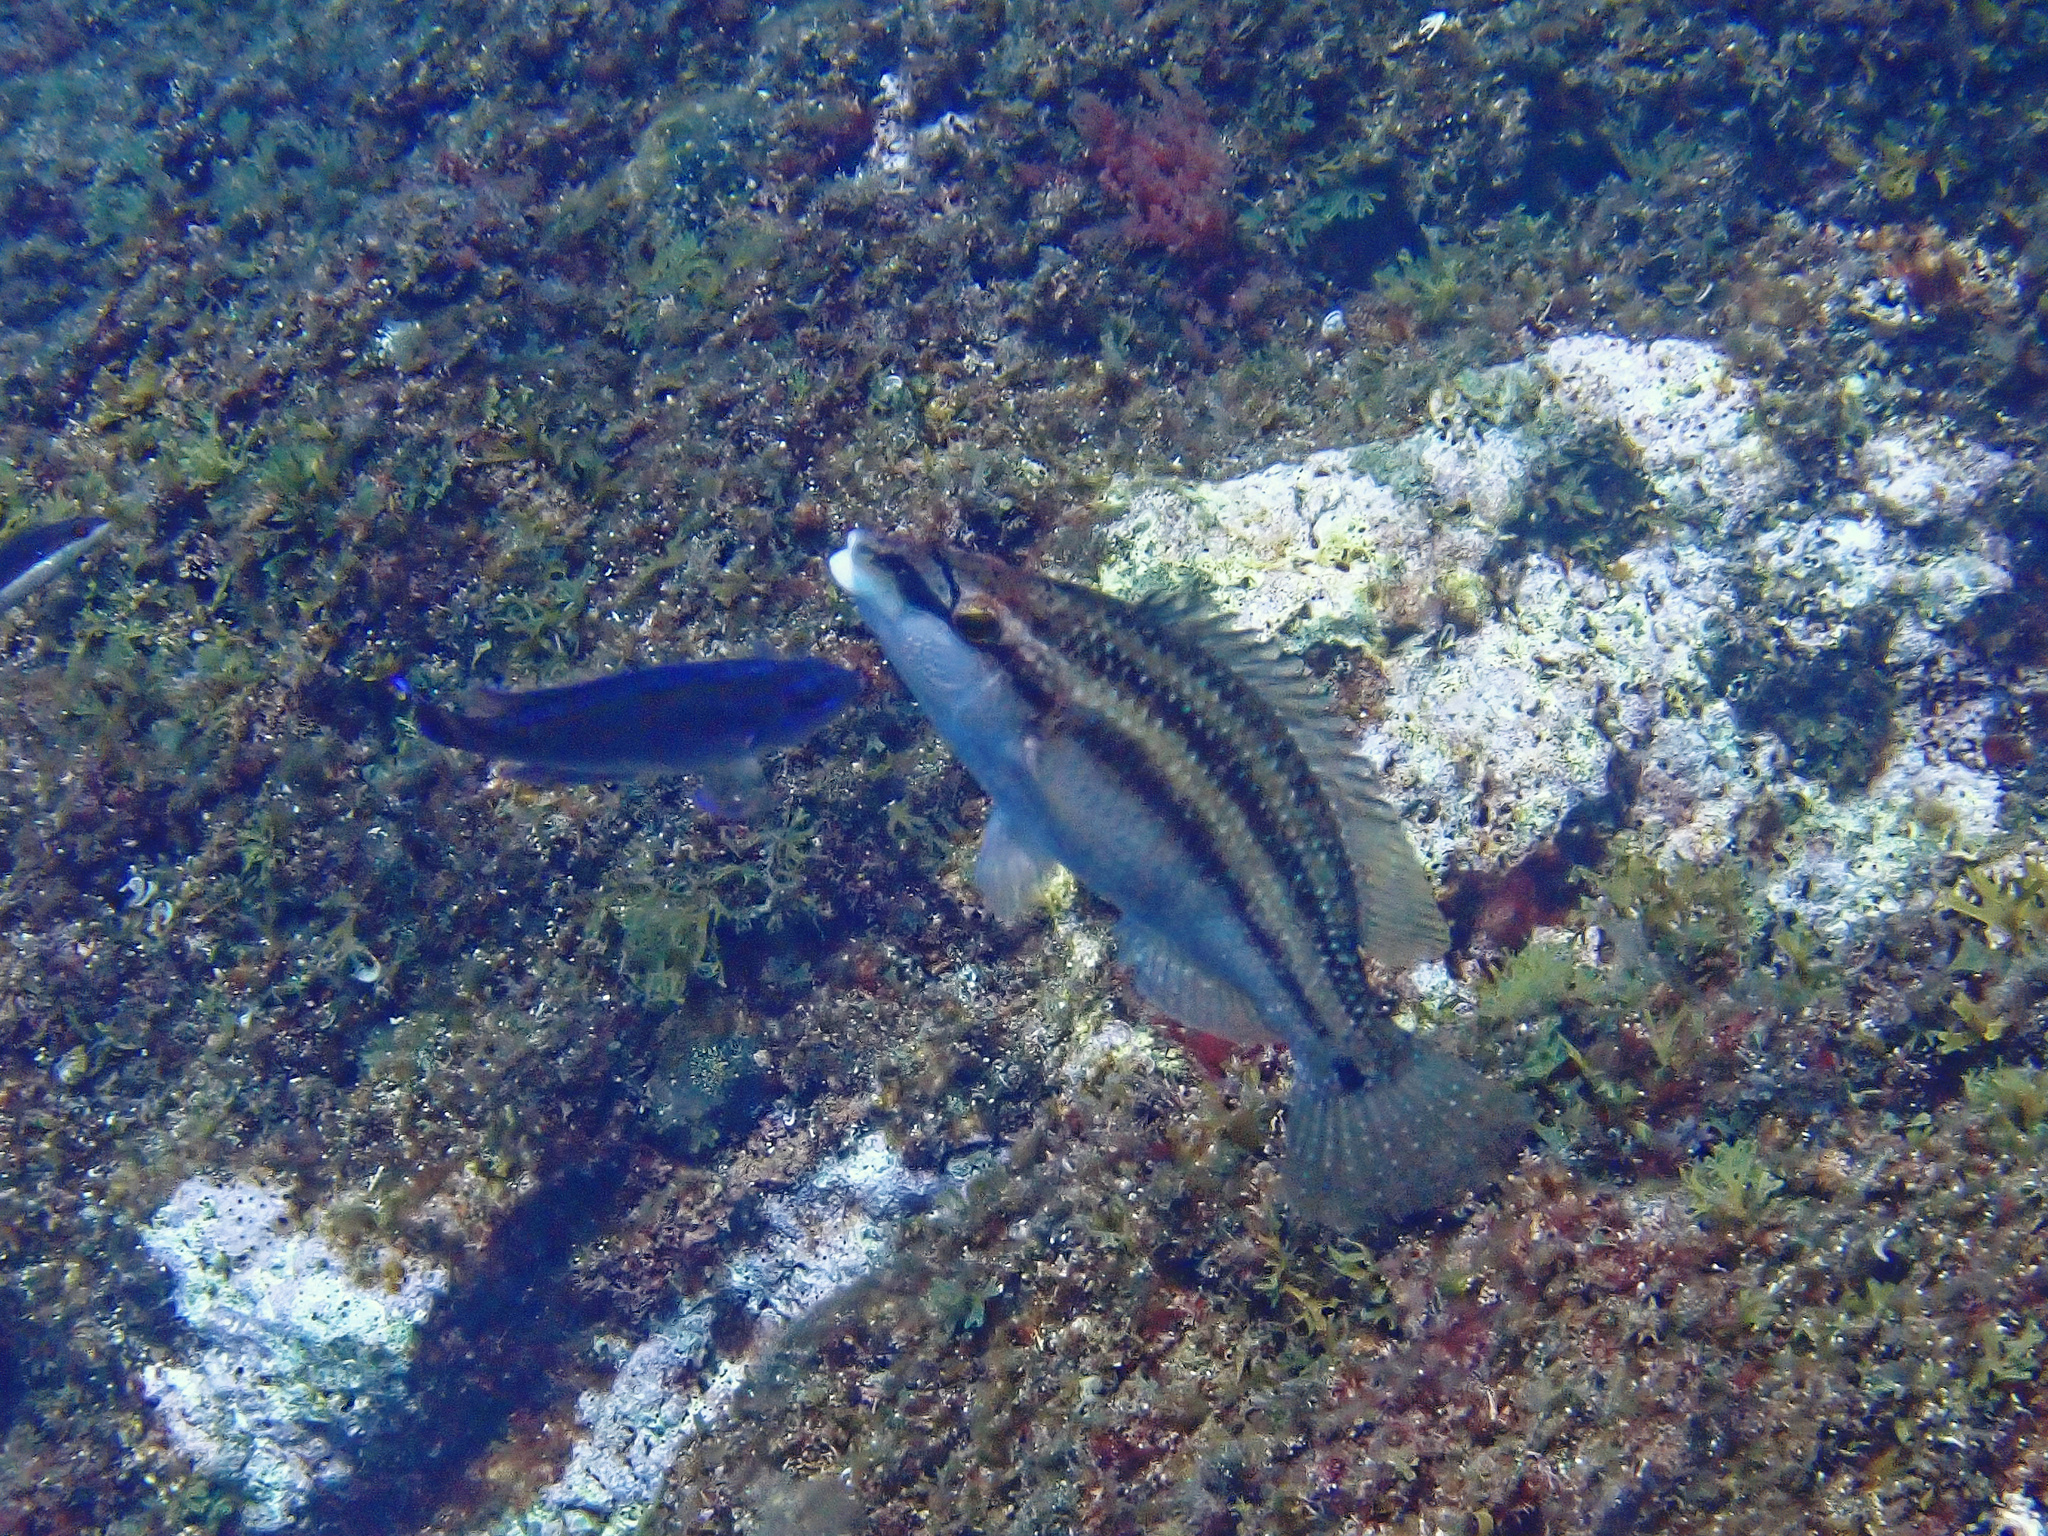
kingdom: Animalia
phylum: Chordata
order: Perciformes
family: Labridae
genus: Symphodus
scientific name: Symphodus tinca
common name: Peacock wrasse
